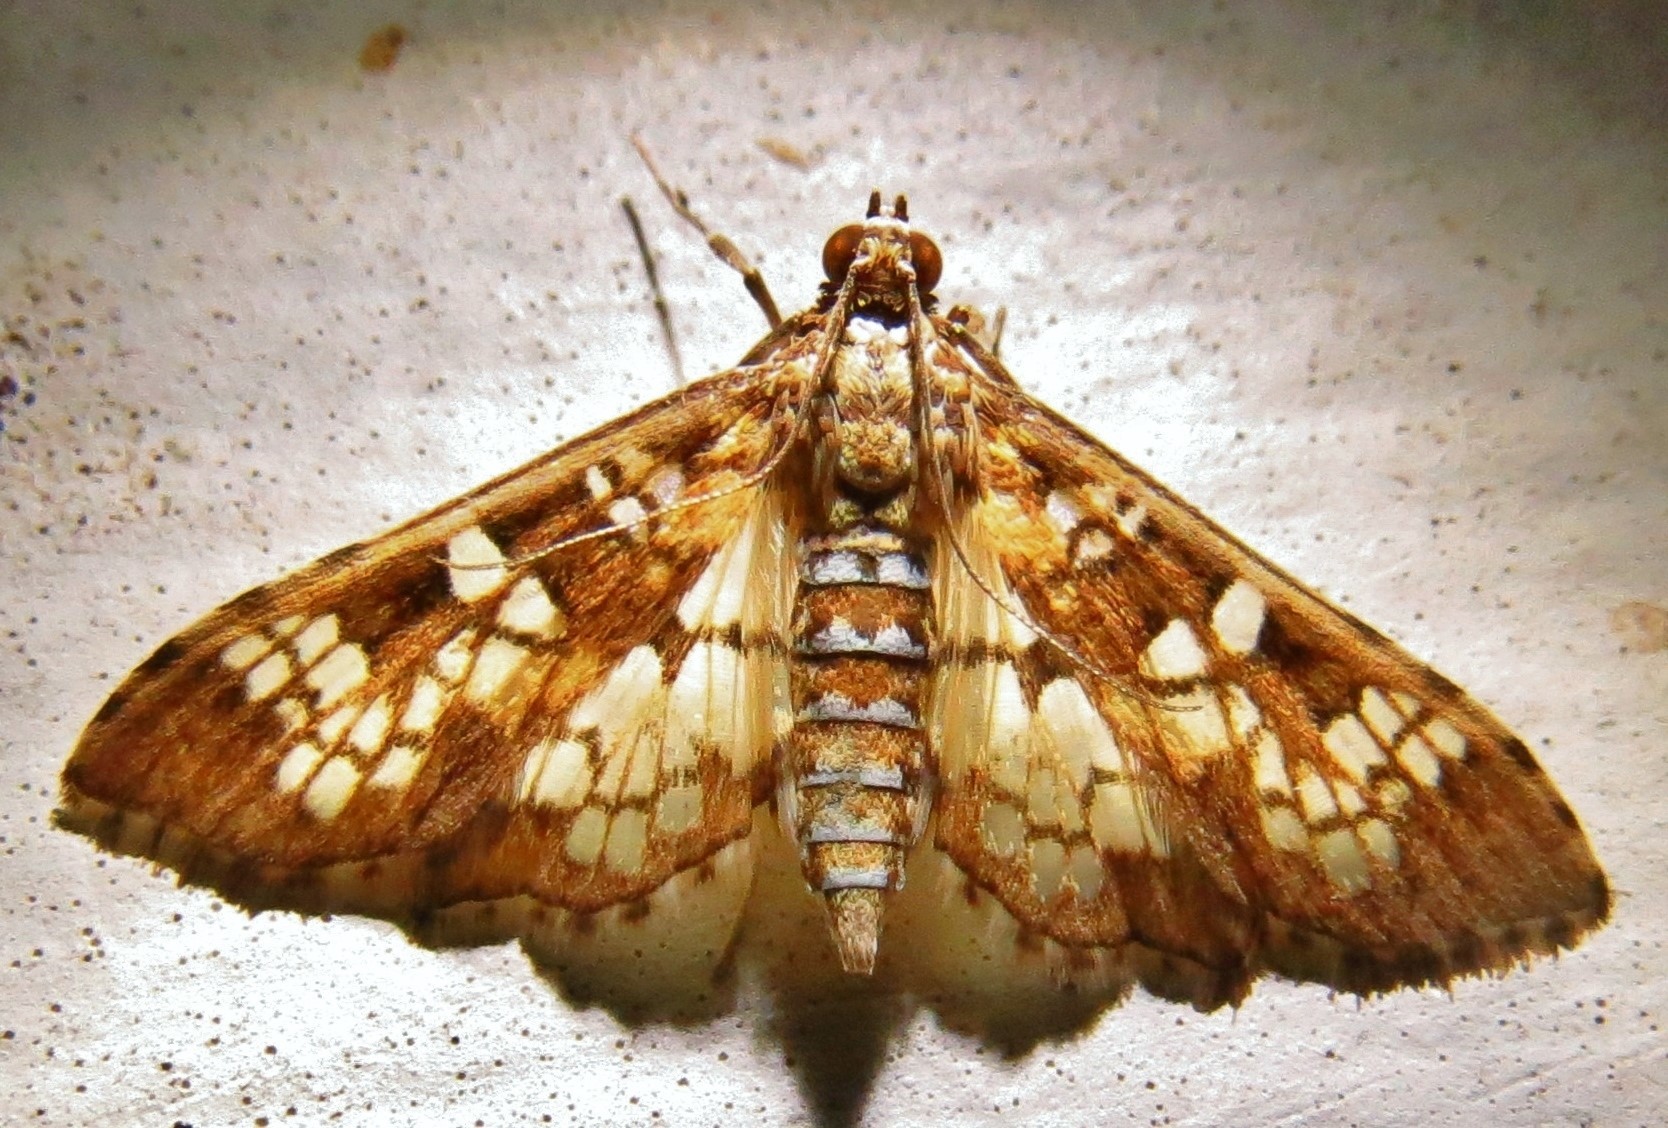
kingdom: Animalia
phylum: Arthropoda
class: Insecta
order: Lepidoptera
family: Crambidae
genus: Samea
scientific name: Samea ecclesialis
